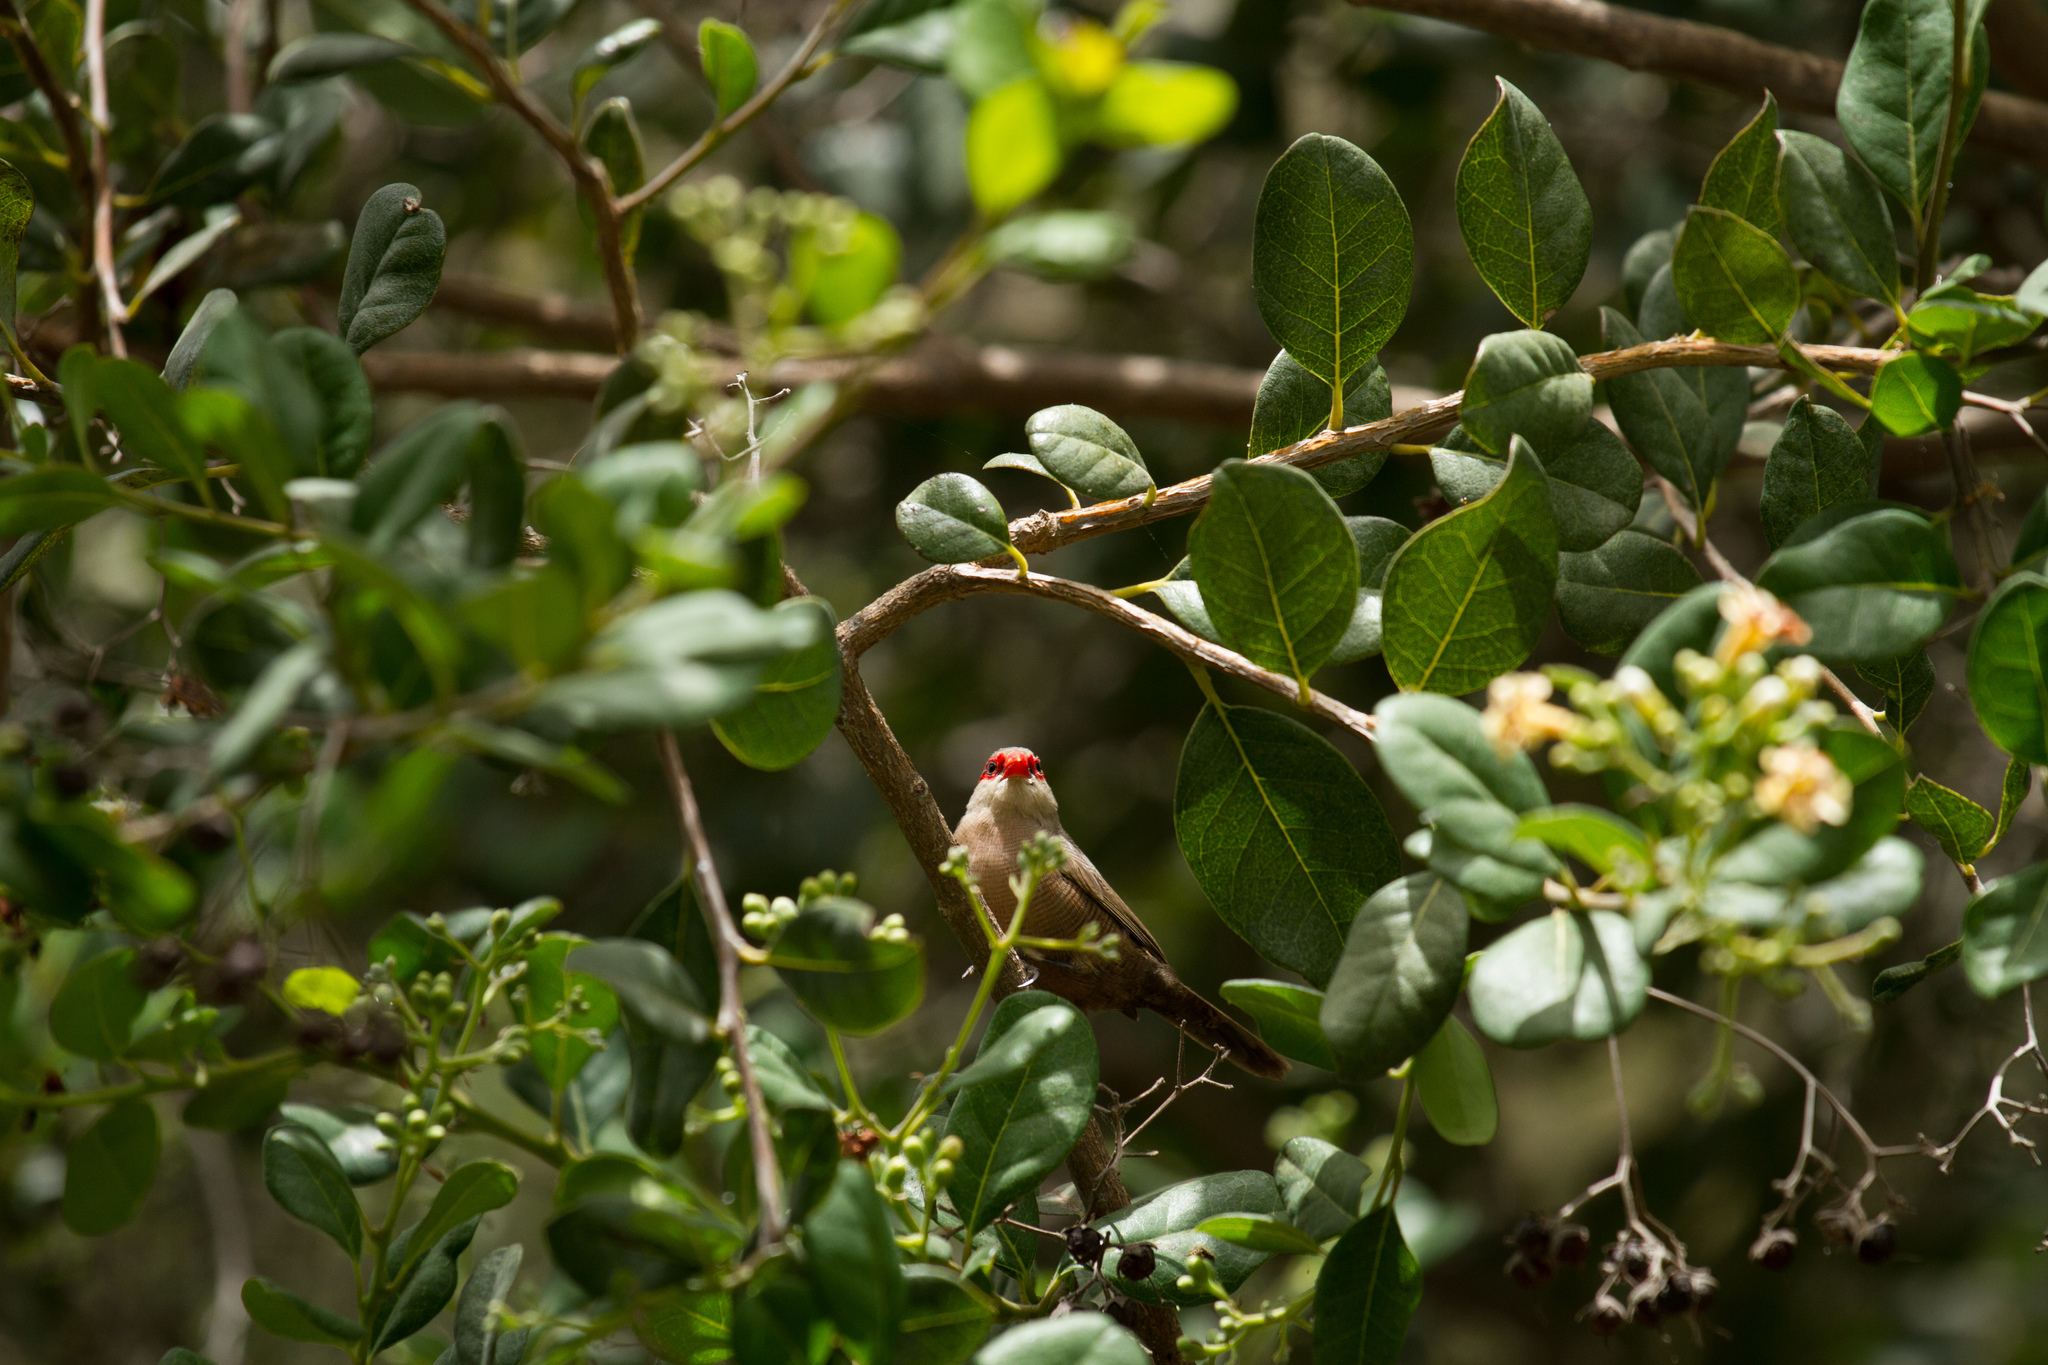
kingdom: Animalia
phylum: Chordata
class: Aves
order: Passeriformes
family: Estrildidae
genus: Estrilda
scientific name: Estrilda astrild
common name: Common waxbill
